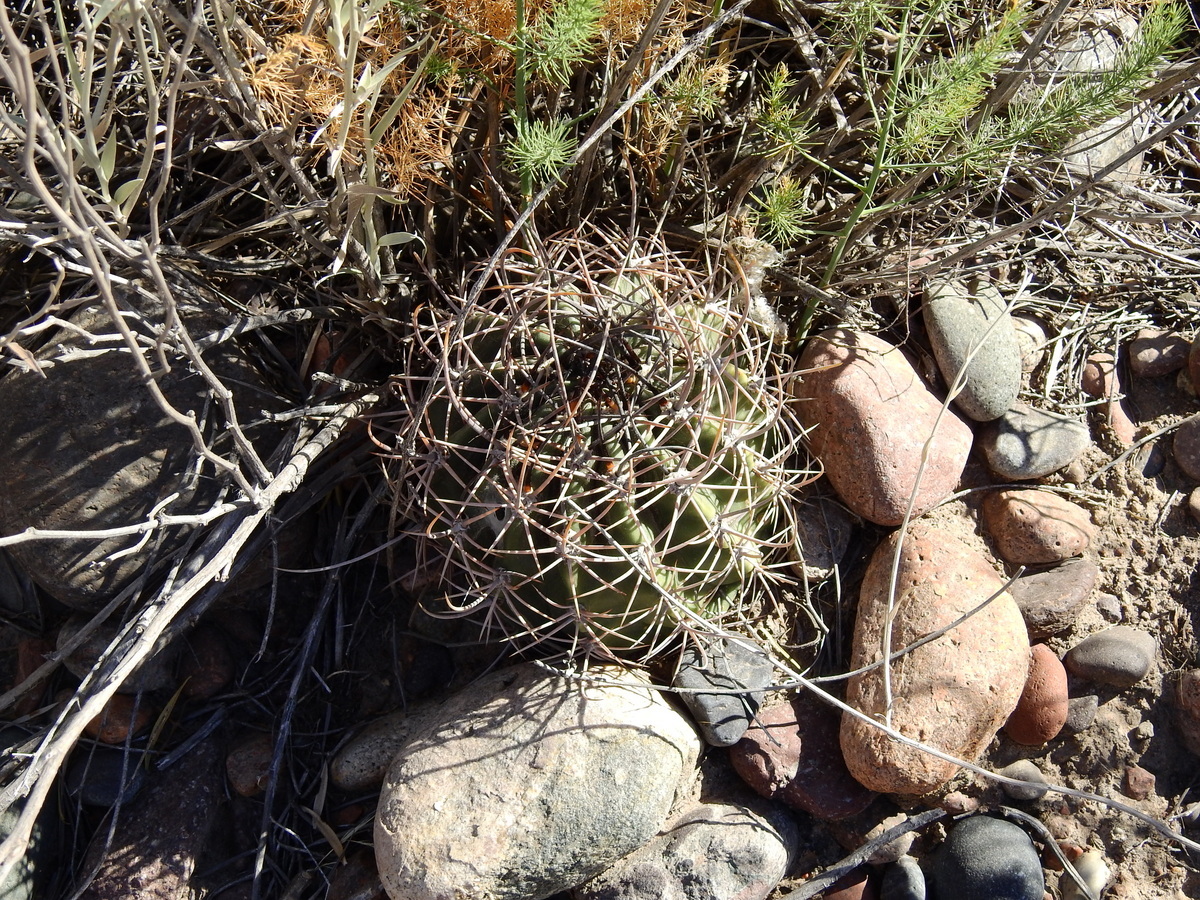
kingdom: Plantae
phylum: Tracheophyta
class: Magnoliopsida
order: Caryophyllales
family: Cactaceae
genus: Acanthocalycium
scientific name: Acanthocalycium leucanthum
